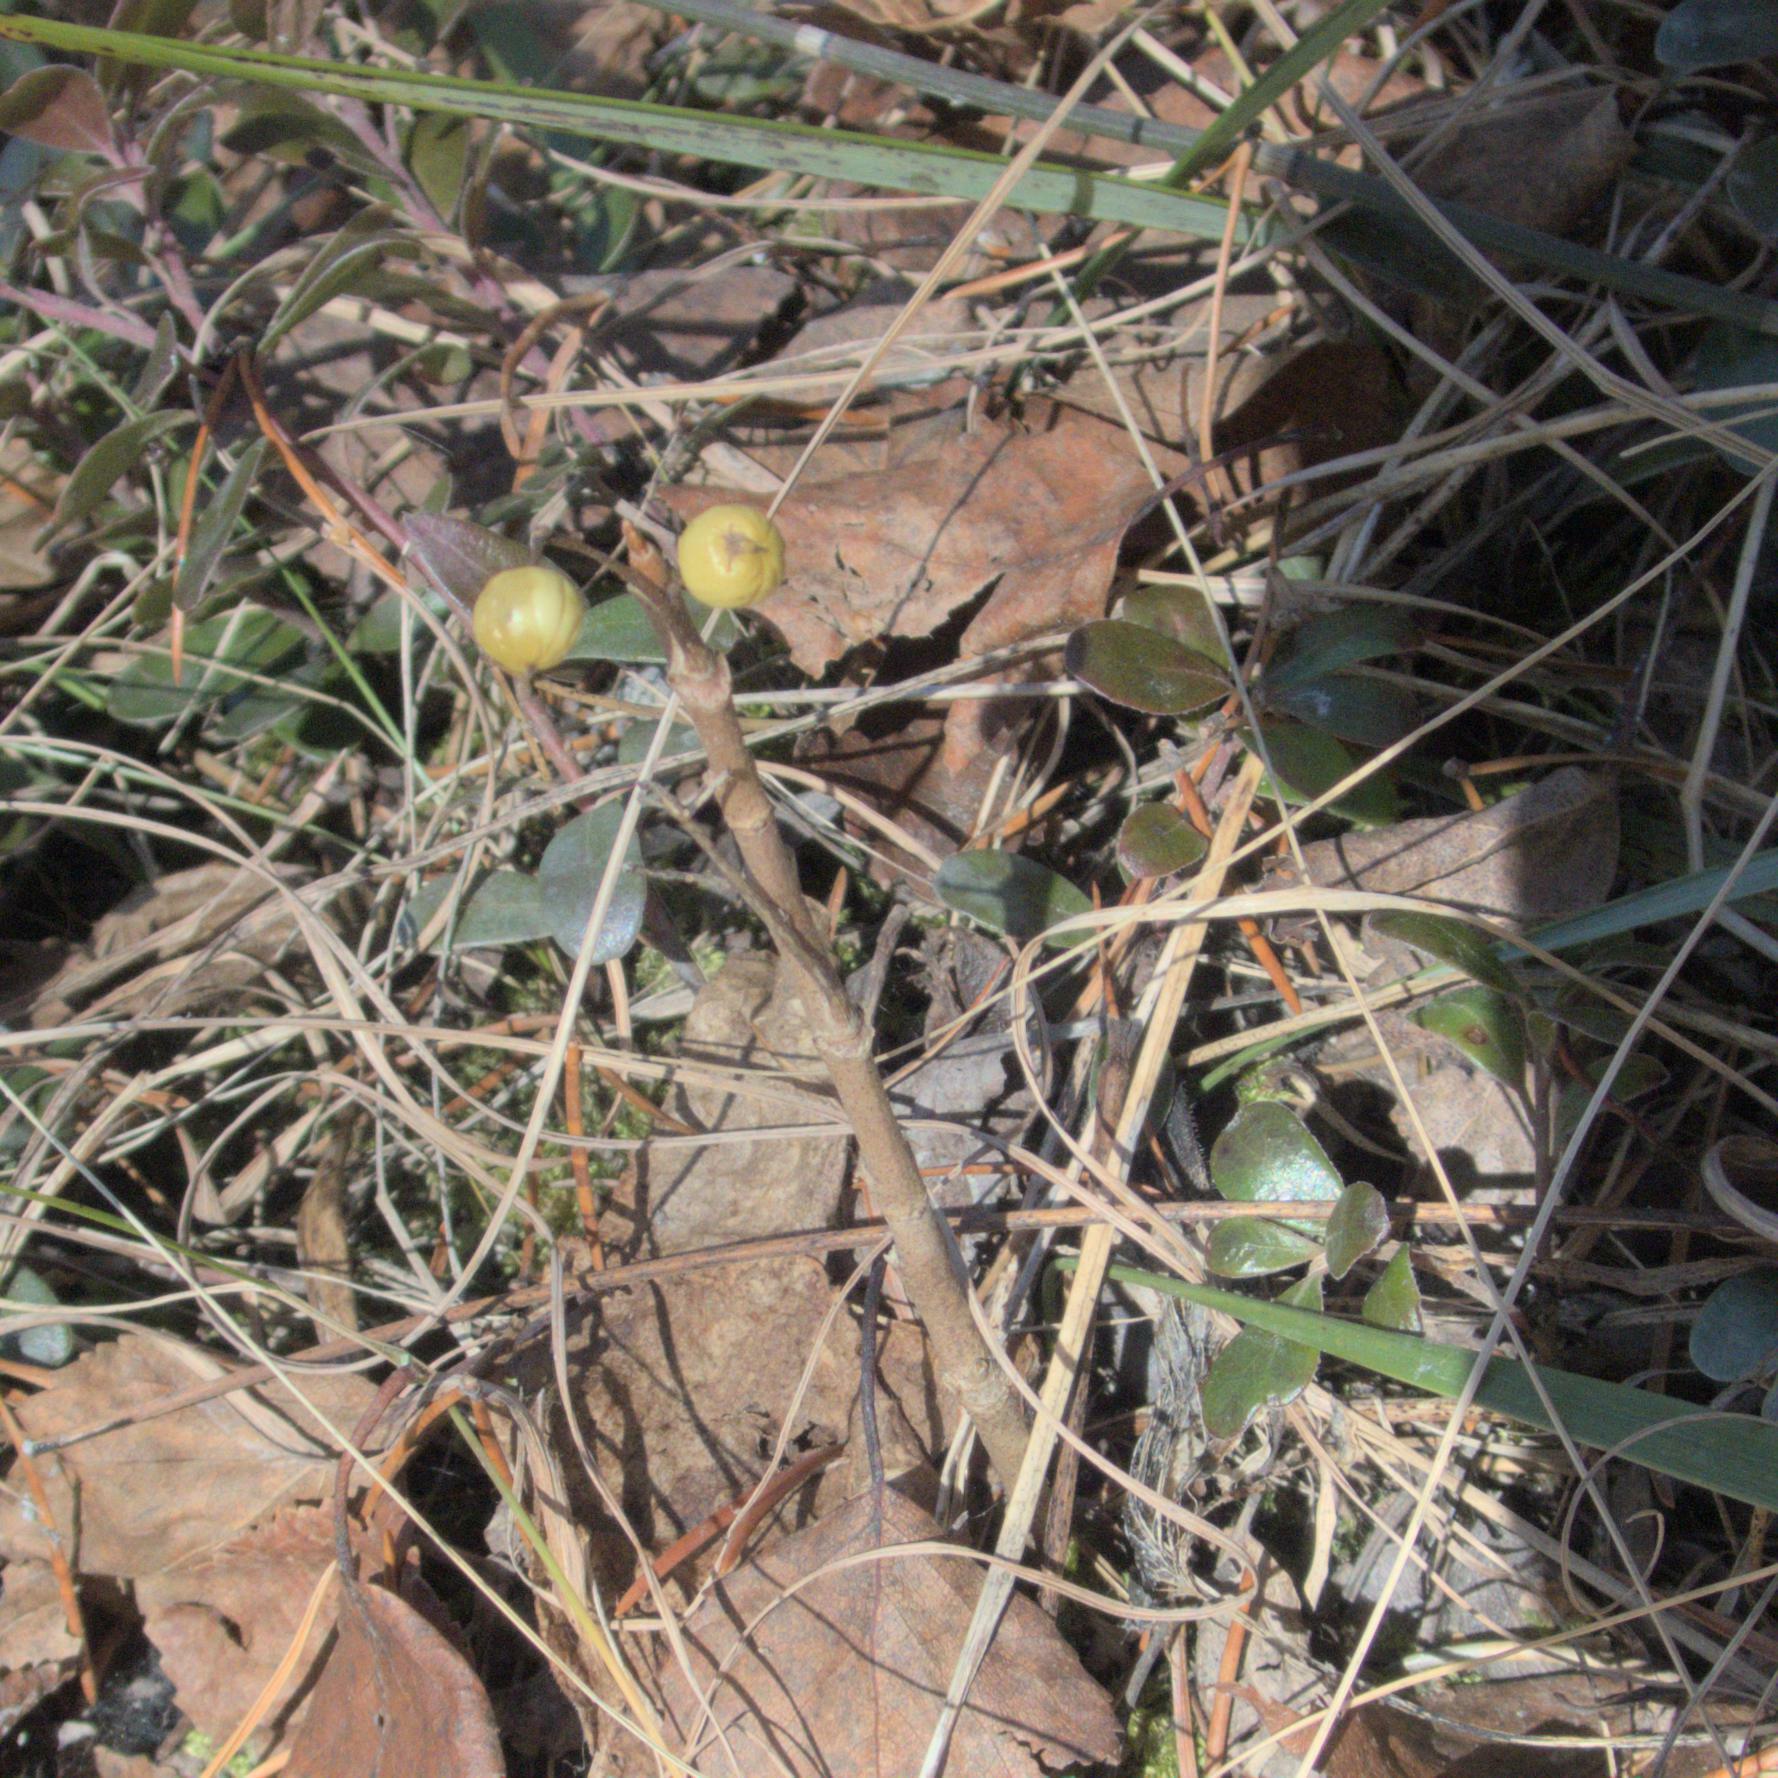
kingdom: Plantae
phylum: Tracheophyta
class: Magnoliopsida
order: Sapindales
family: Anacardiaceae
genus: Toxicodendron
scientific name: Toxicodendron rydbergii
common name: Rydberg's poison-ivy
